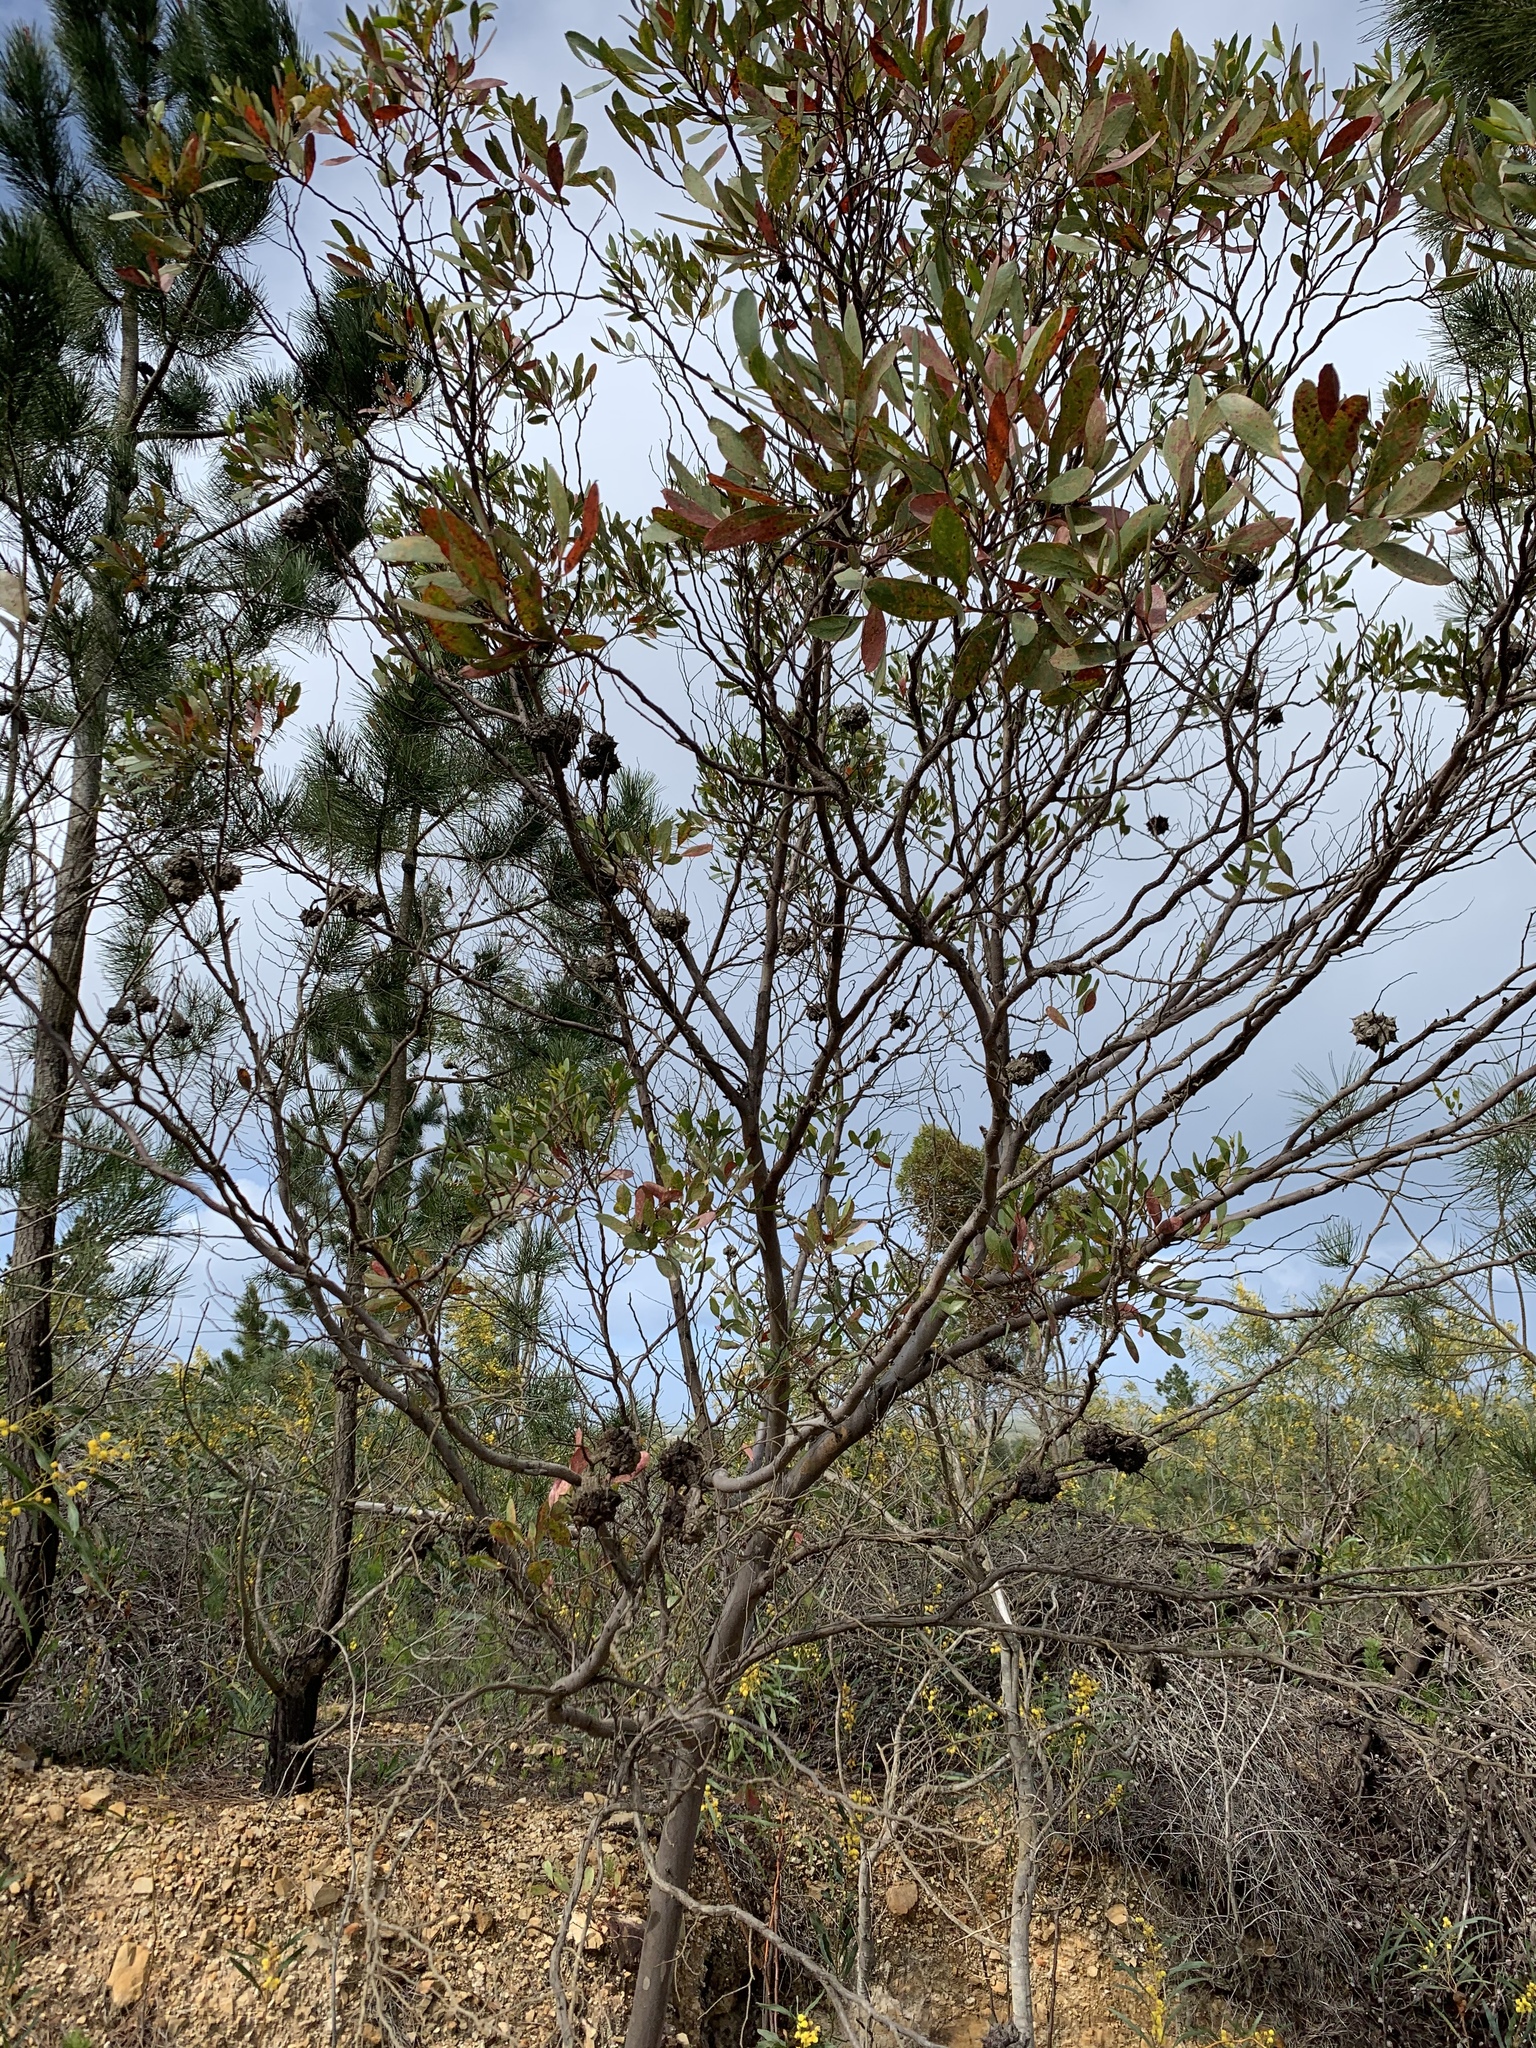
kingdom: Plantae
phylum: Tracheophyta
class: Magnoliopsida
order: Myrtales
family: Myrtaceae
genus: Eucalyptus
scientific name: Eucalyptus conferruminata
